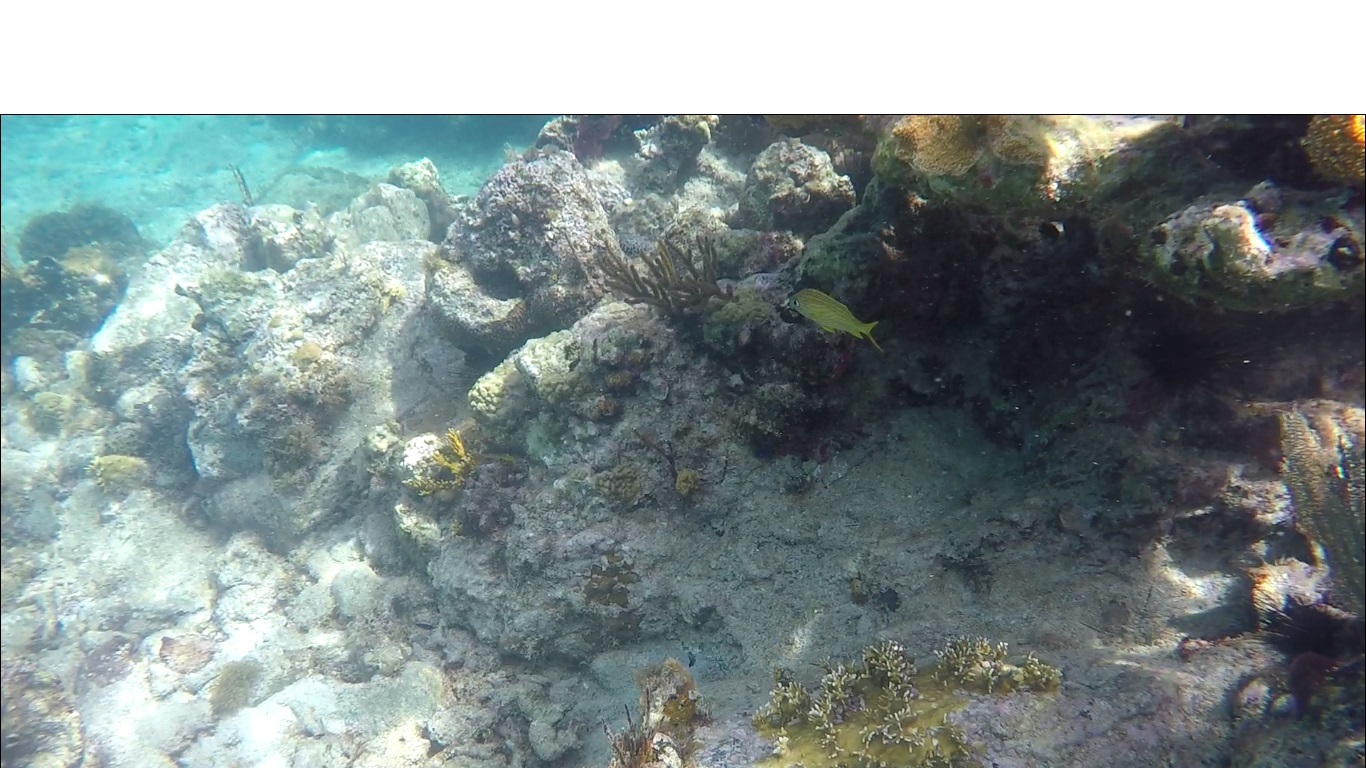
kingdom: Animalia
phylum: Chordata
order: Perciformes
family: Haemulidae
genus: Haemulon
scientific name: Haemulon flavolineatum
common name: French grunt
